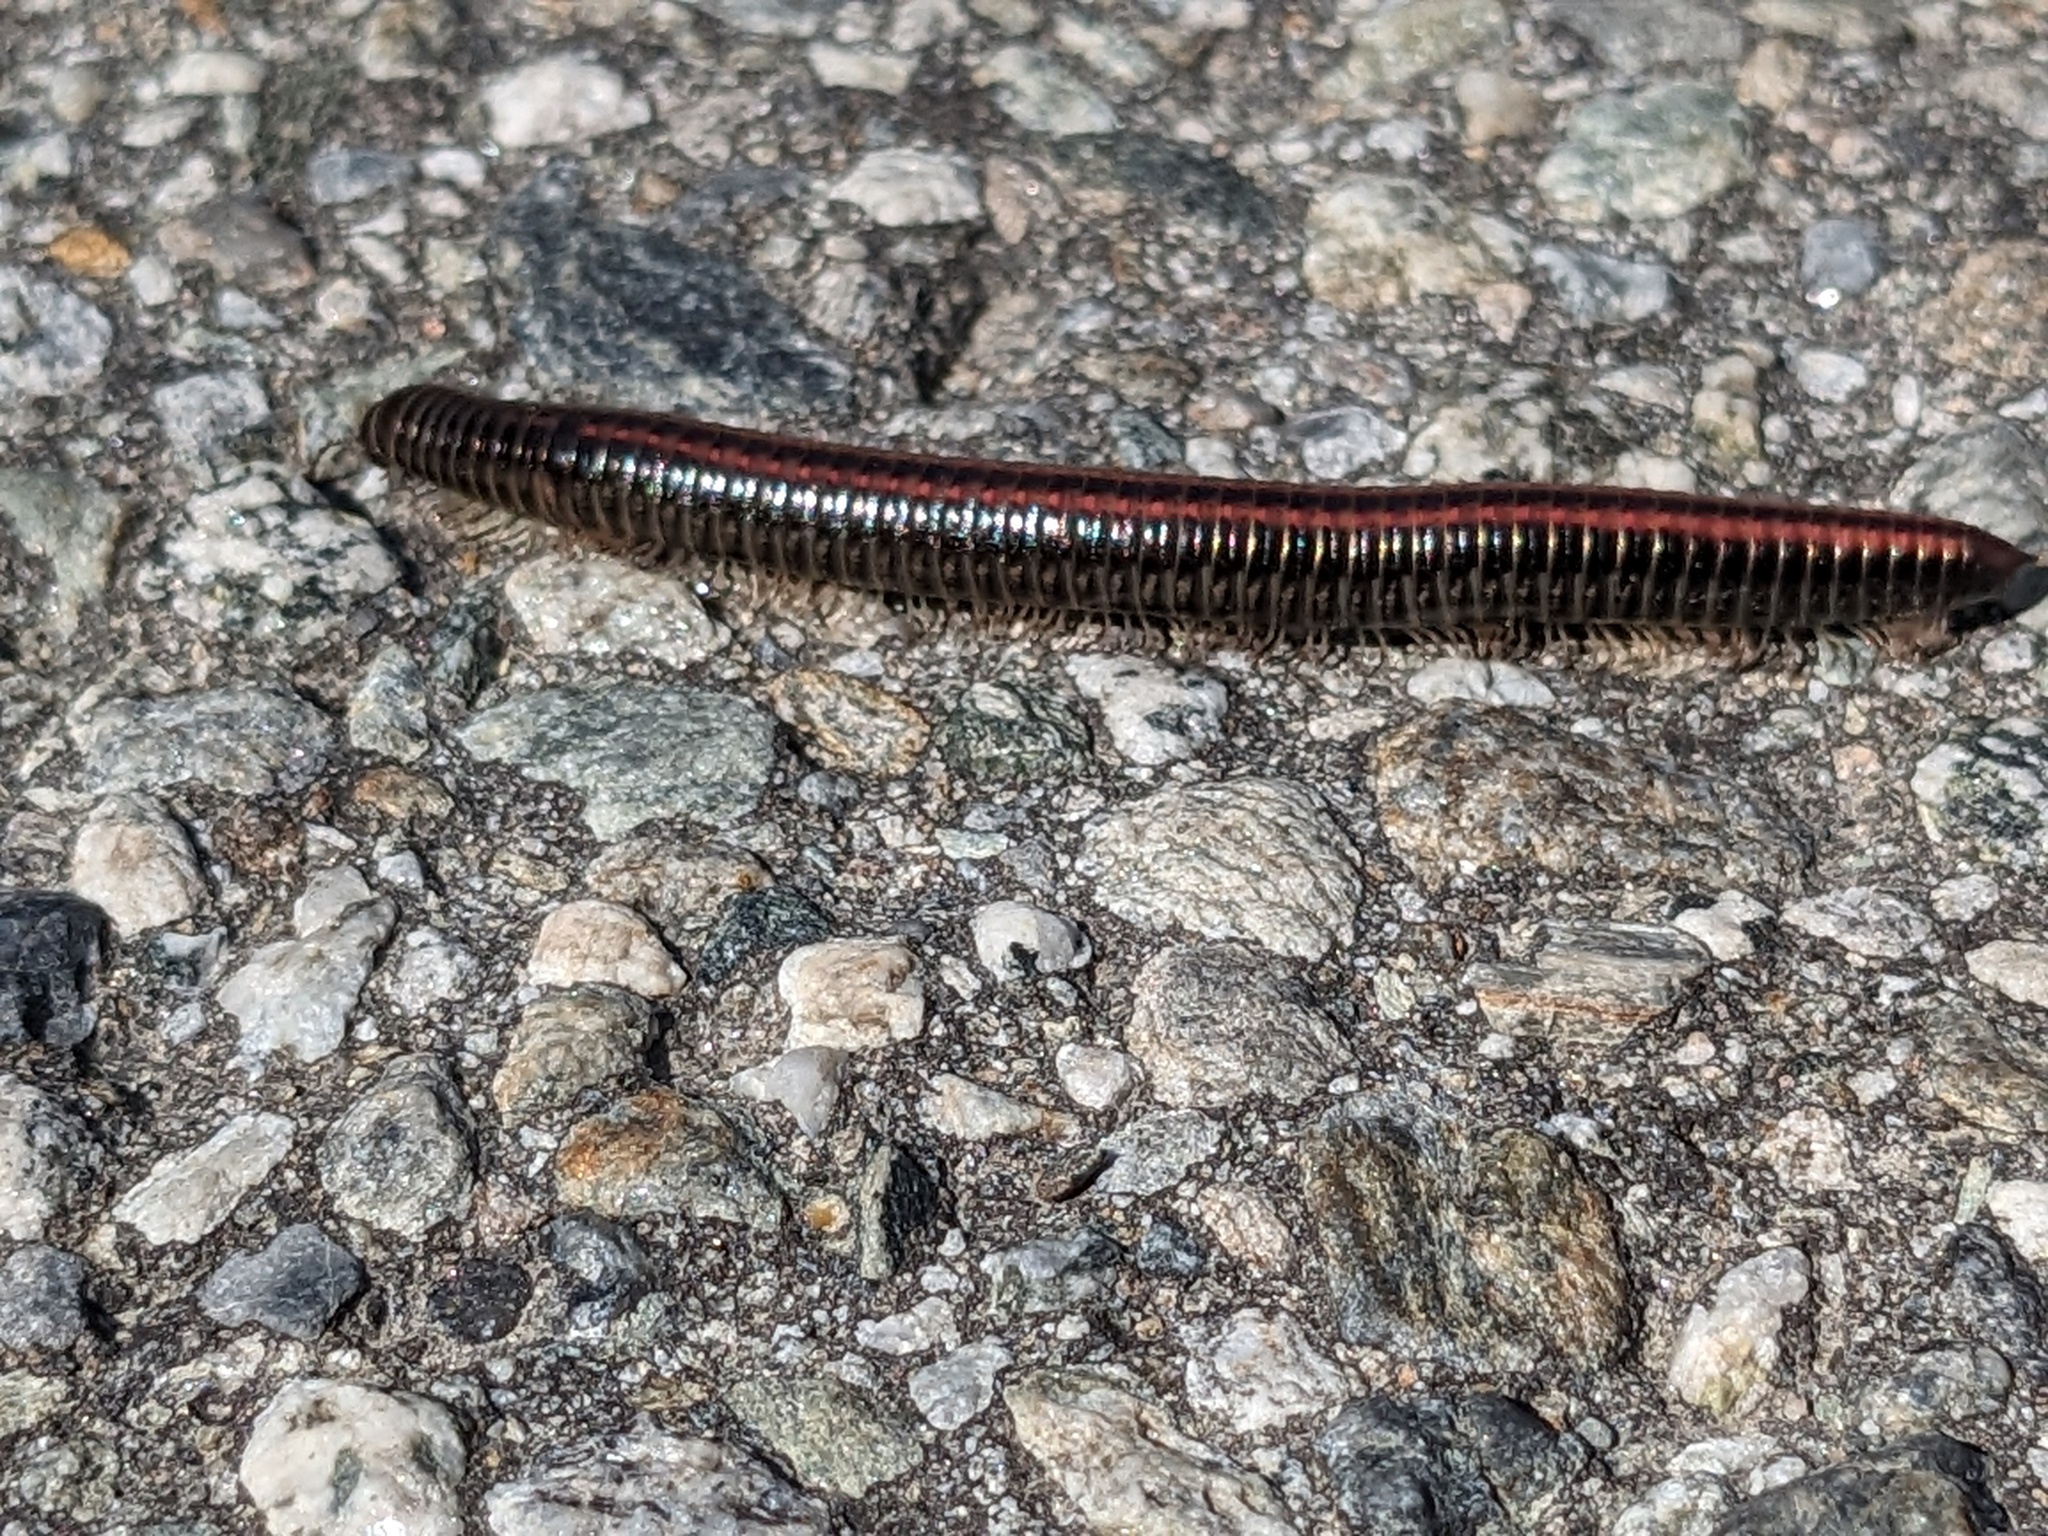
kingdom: Animalia
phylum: Arthropoda
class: Diplopoda
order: Julida
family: Julidae
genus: Ommatoiulus
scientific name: Ommatoiulus sabulosus
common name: Striped millipede
